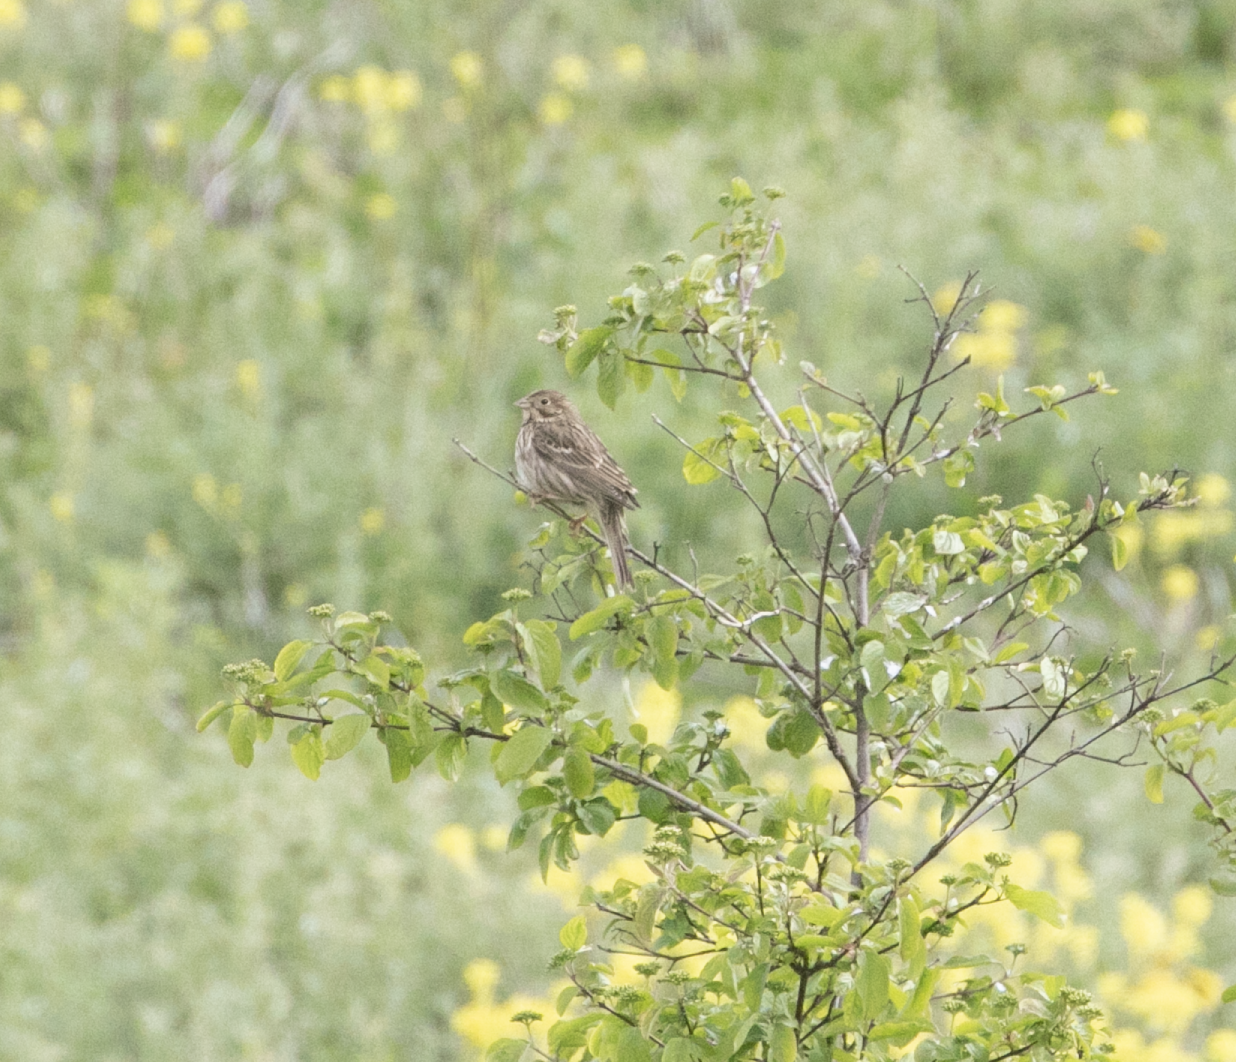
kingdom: Animalia
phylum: Chordata
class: Aves
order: Passeriformes
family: Emberizidae
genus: Emberiza
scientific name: Emberiza calandra
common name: Corn bunting
